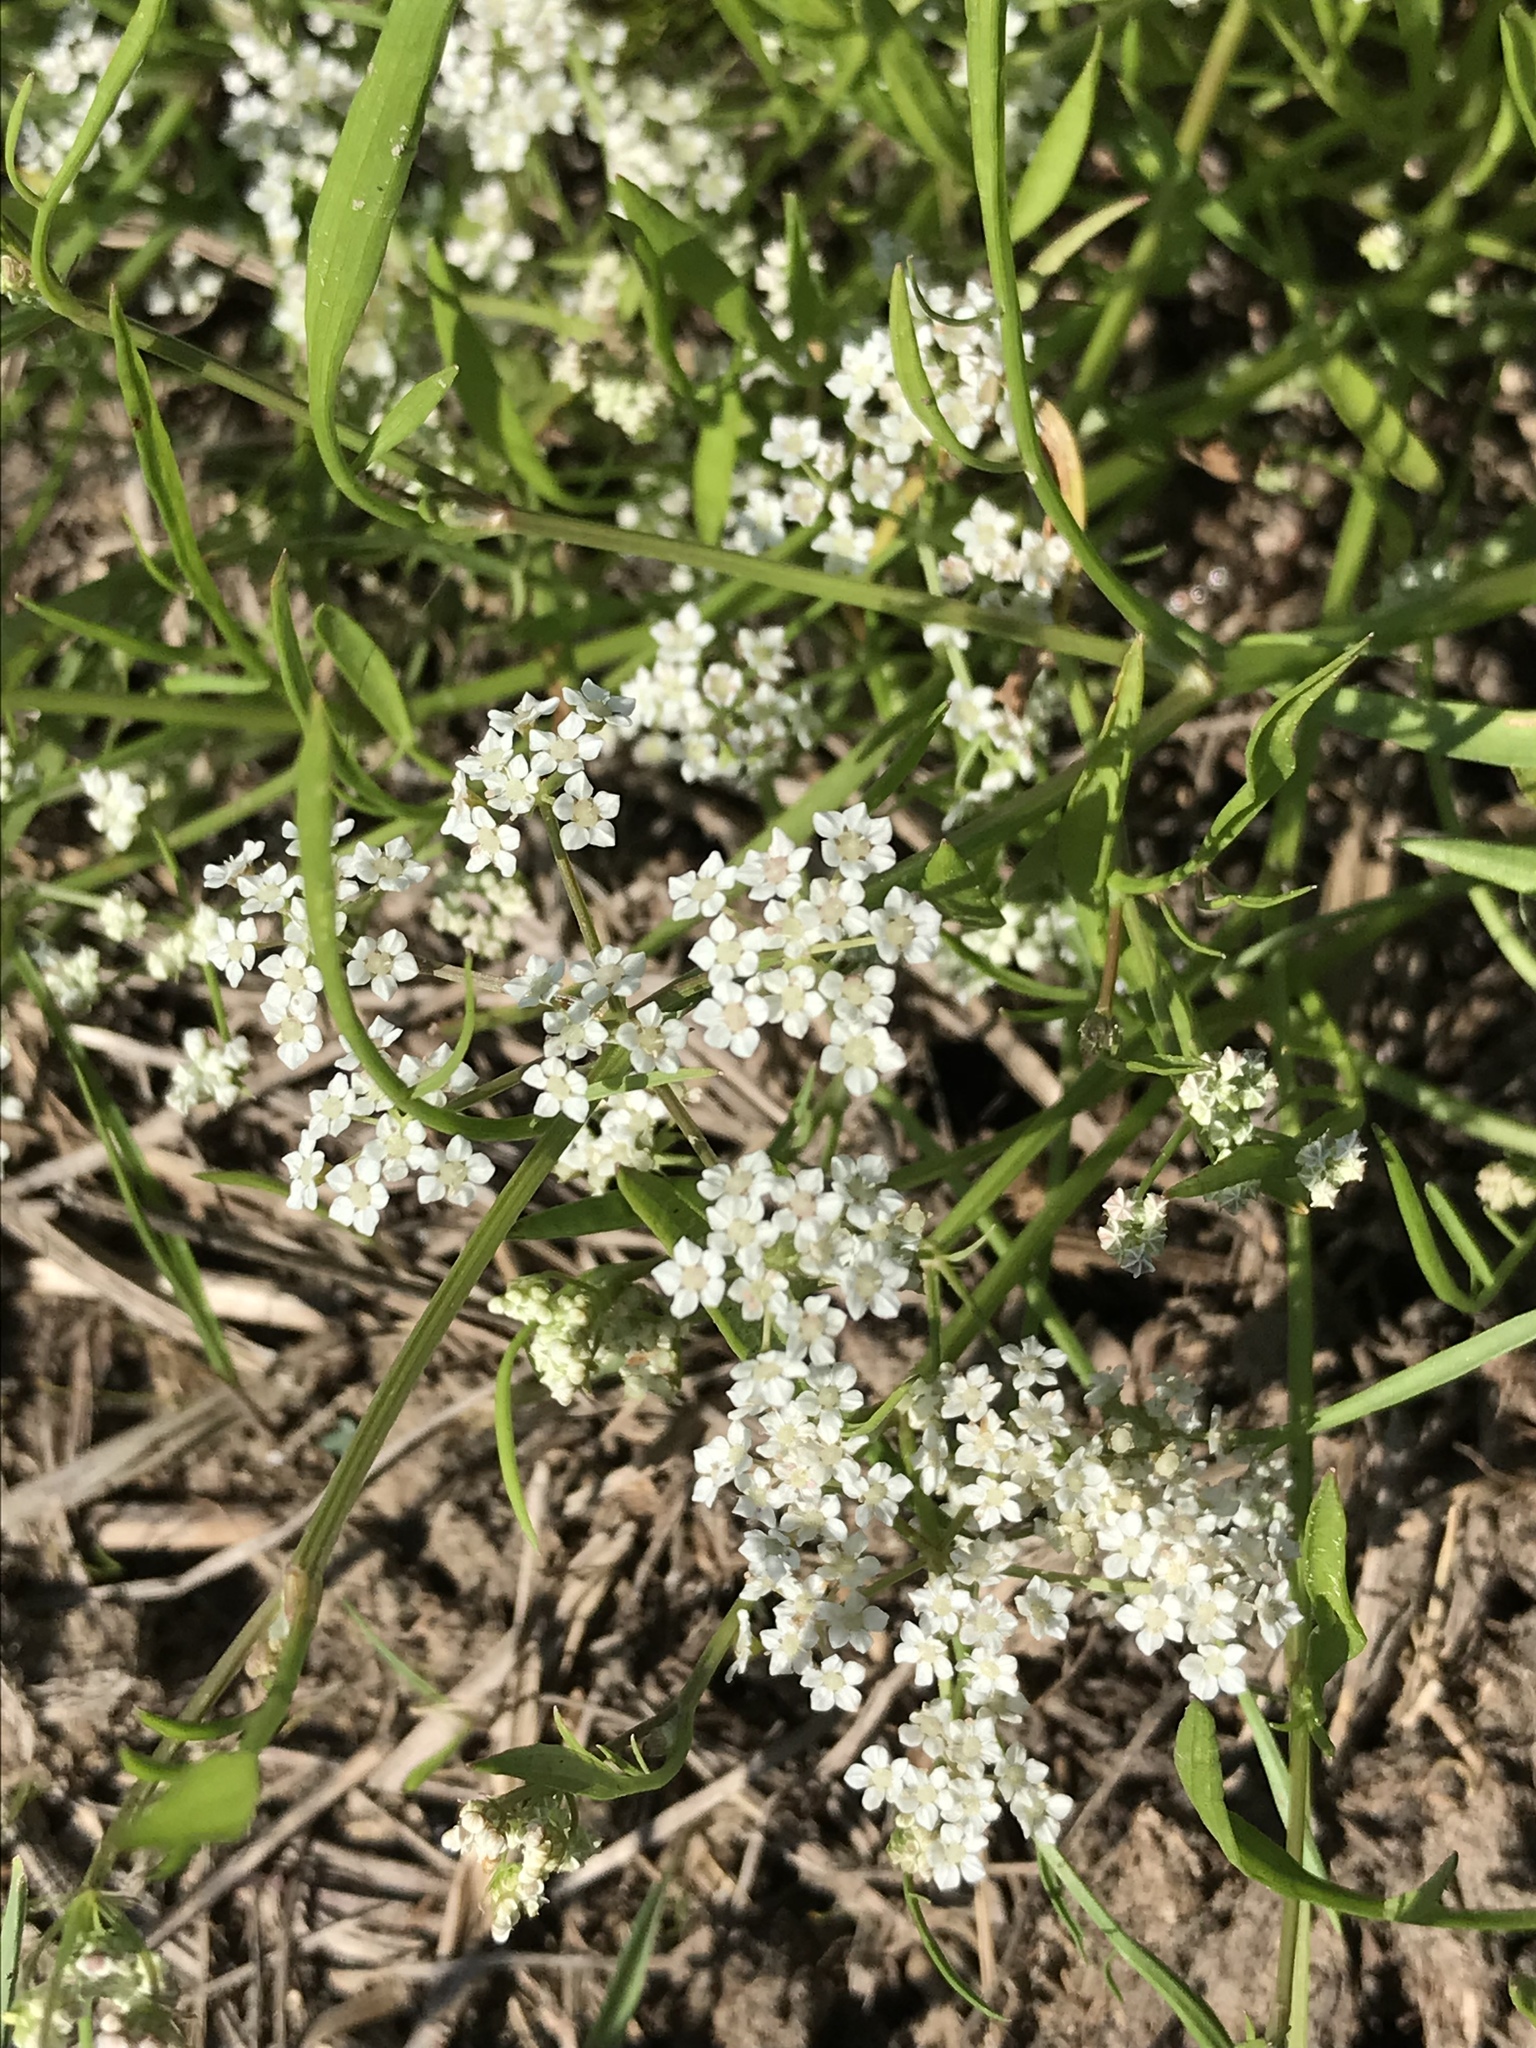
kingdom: Plantae
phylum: Tracheophyta
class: Magnoliopsida
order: Apiales
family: Apiaceae
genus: Limnosciadium
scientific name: Limnosciadium pinnatum
